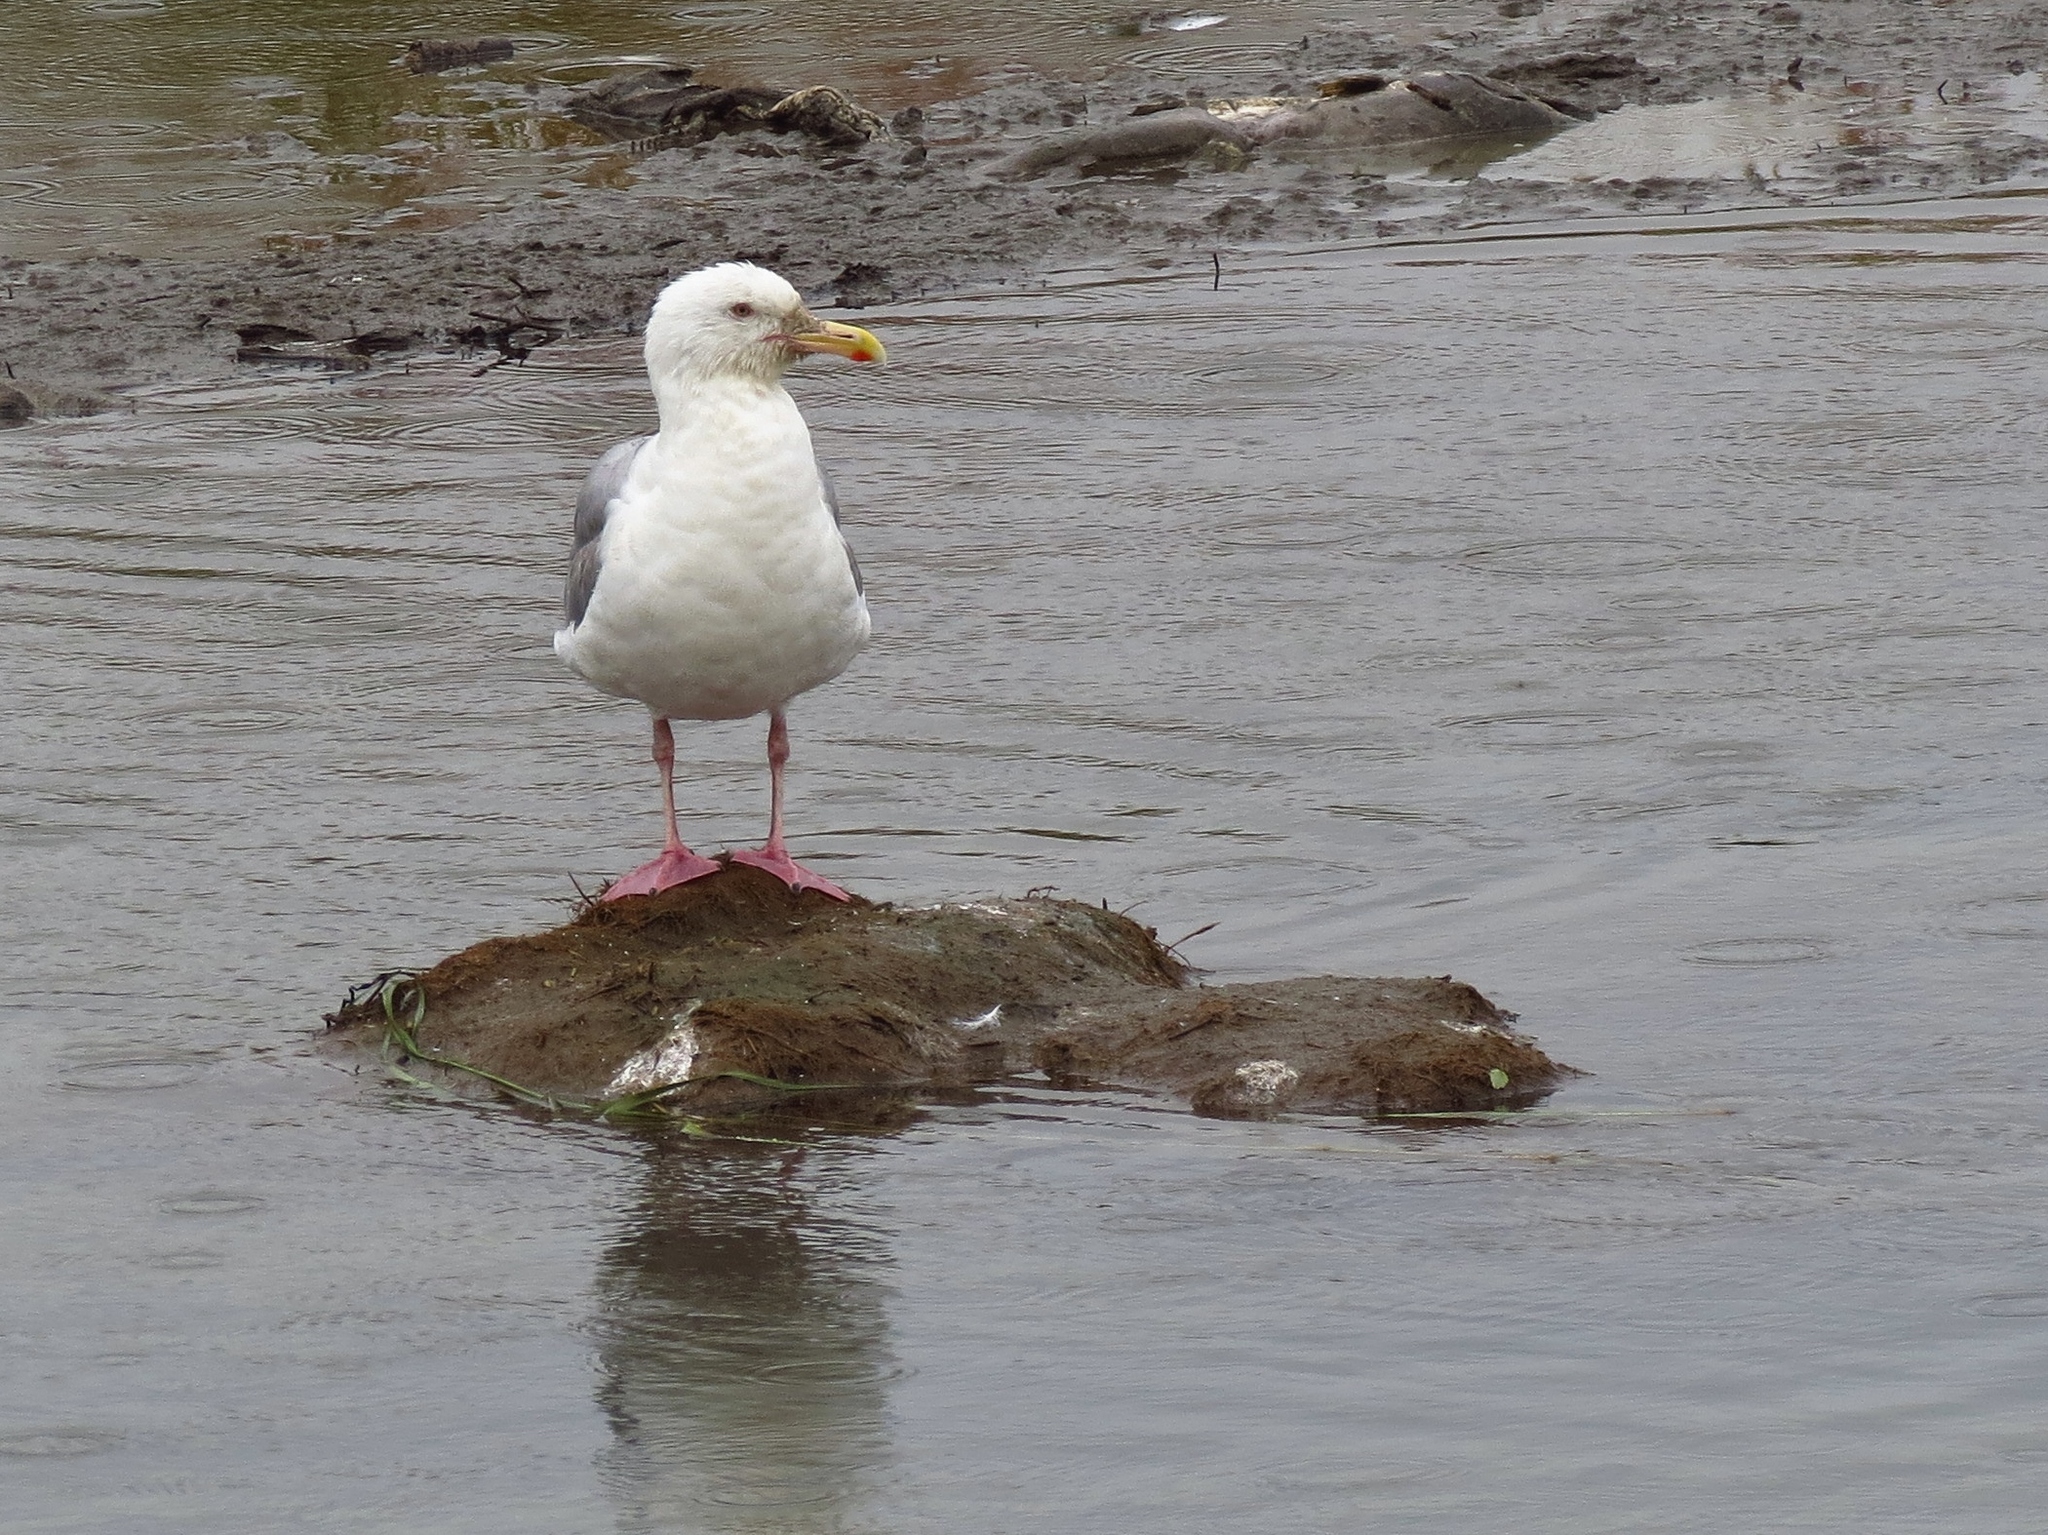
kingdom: Animalia
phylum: Chordata
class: Aves
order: Charadriiformes
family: Laridae
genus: Larus
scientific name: Larus
